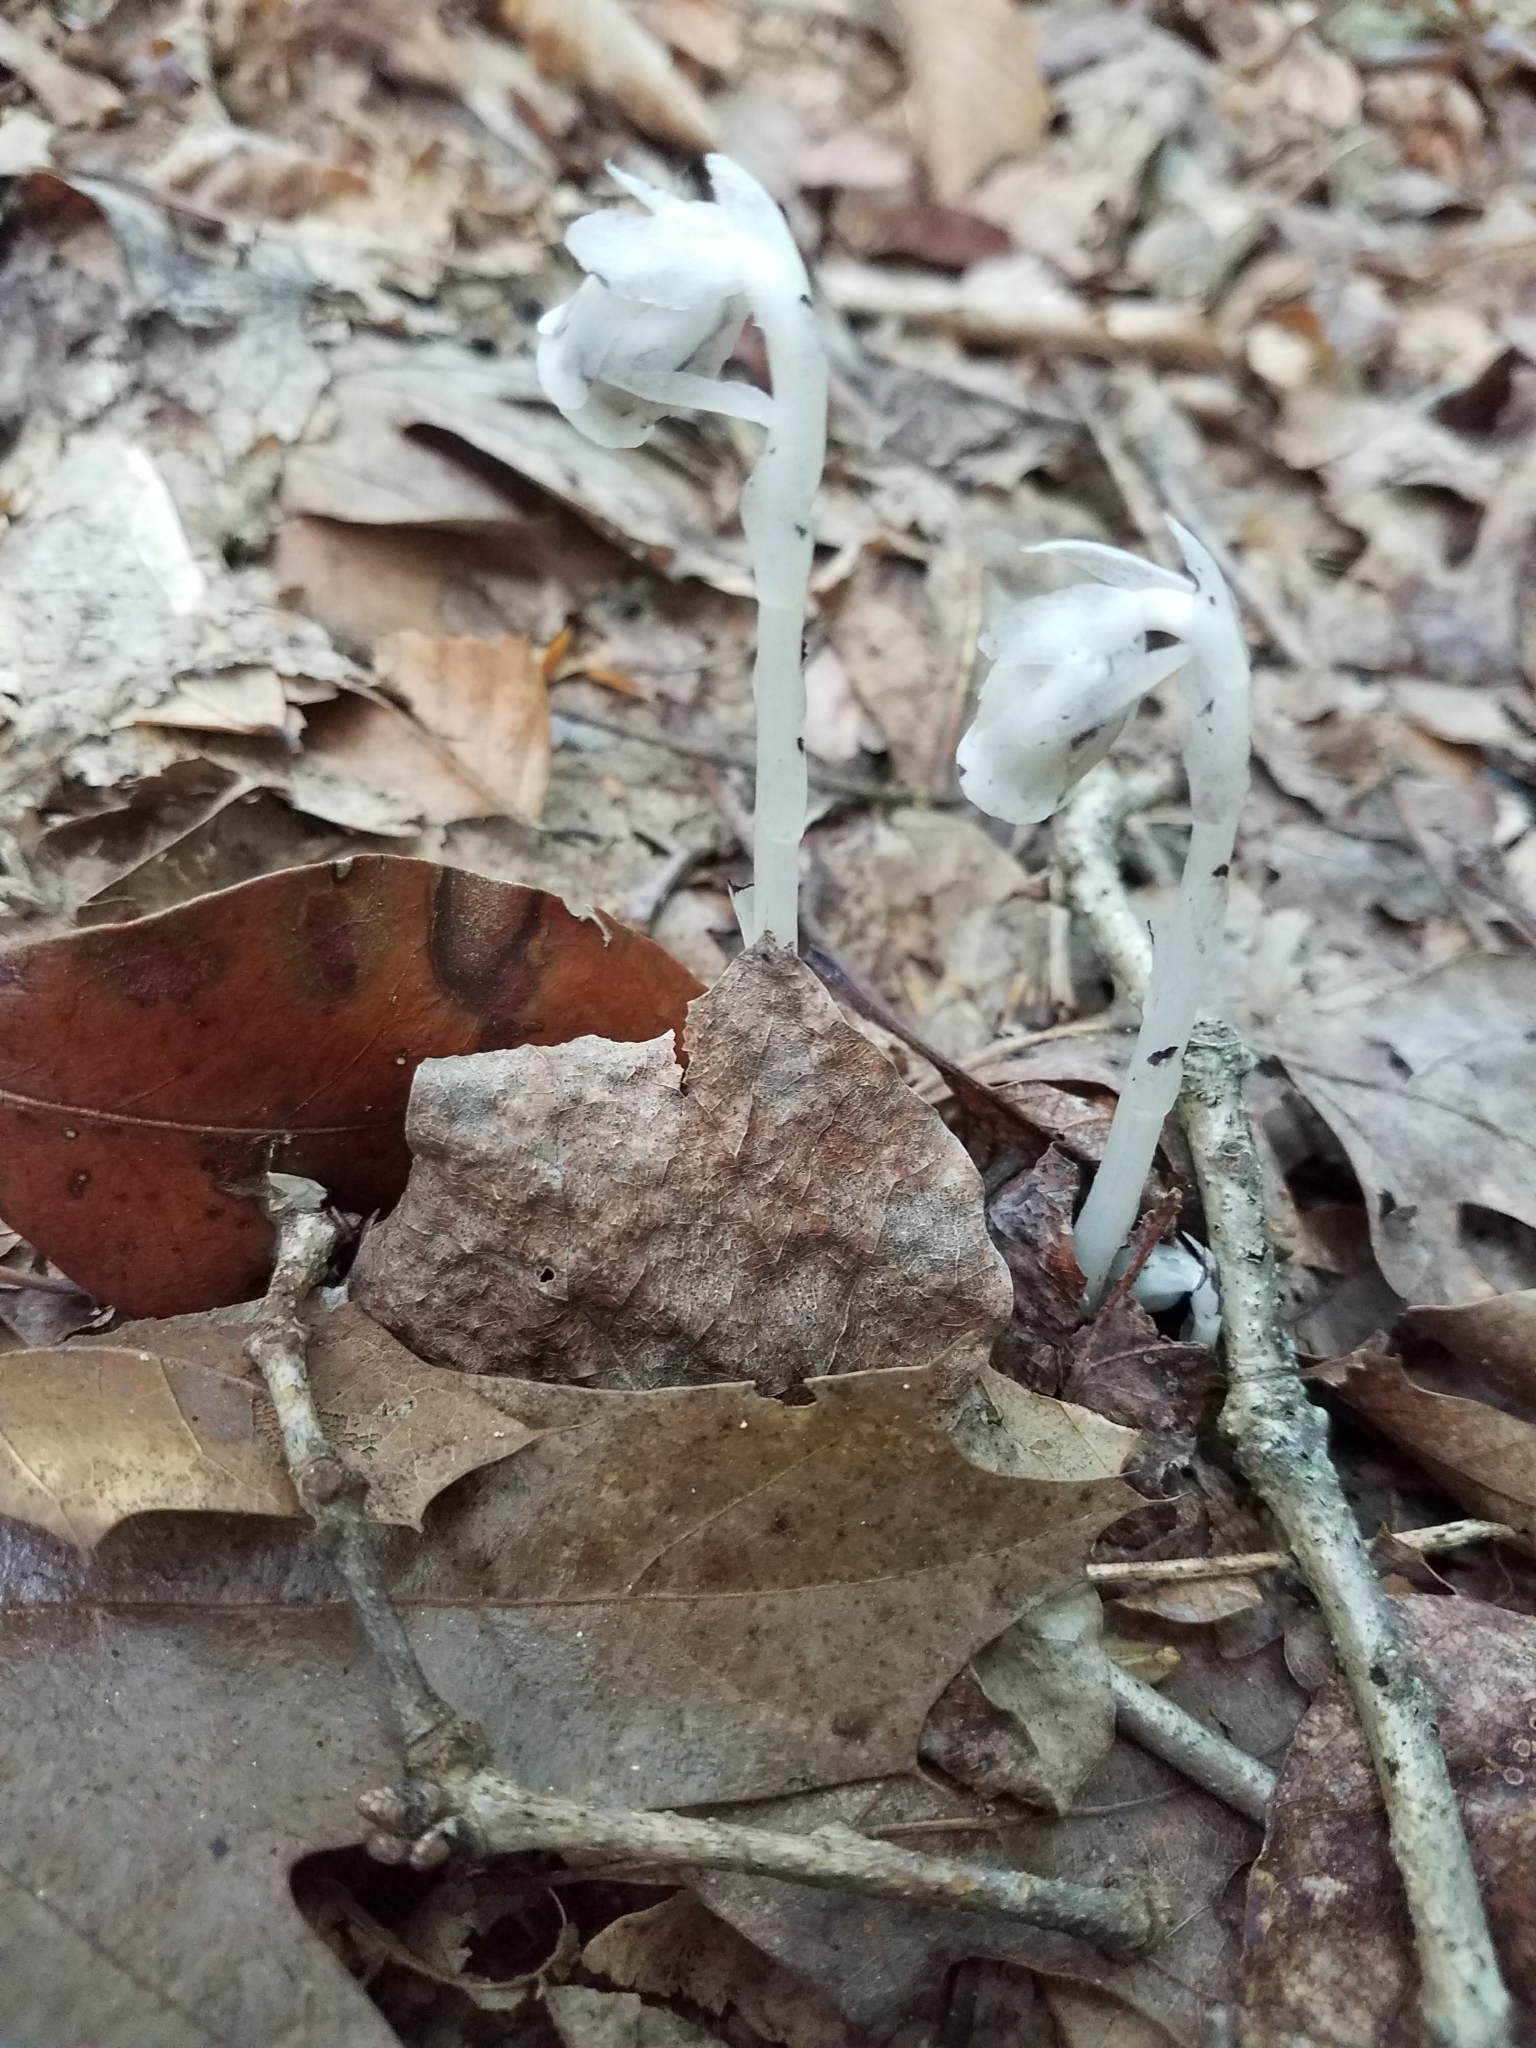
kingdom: Plantae
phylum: Tracheophyta
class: Magnoliopsida
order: Ericales
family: Ericaceae
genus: Monotropa
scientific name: Monotropa uniflora
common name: Convulsion root
